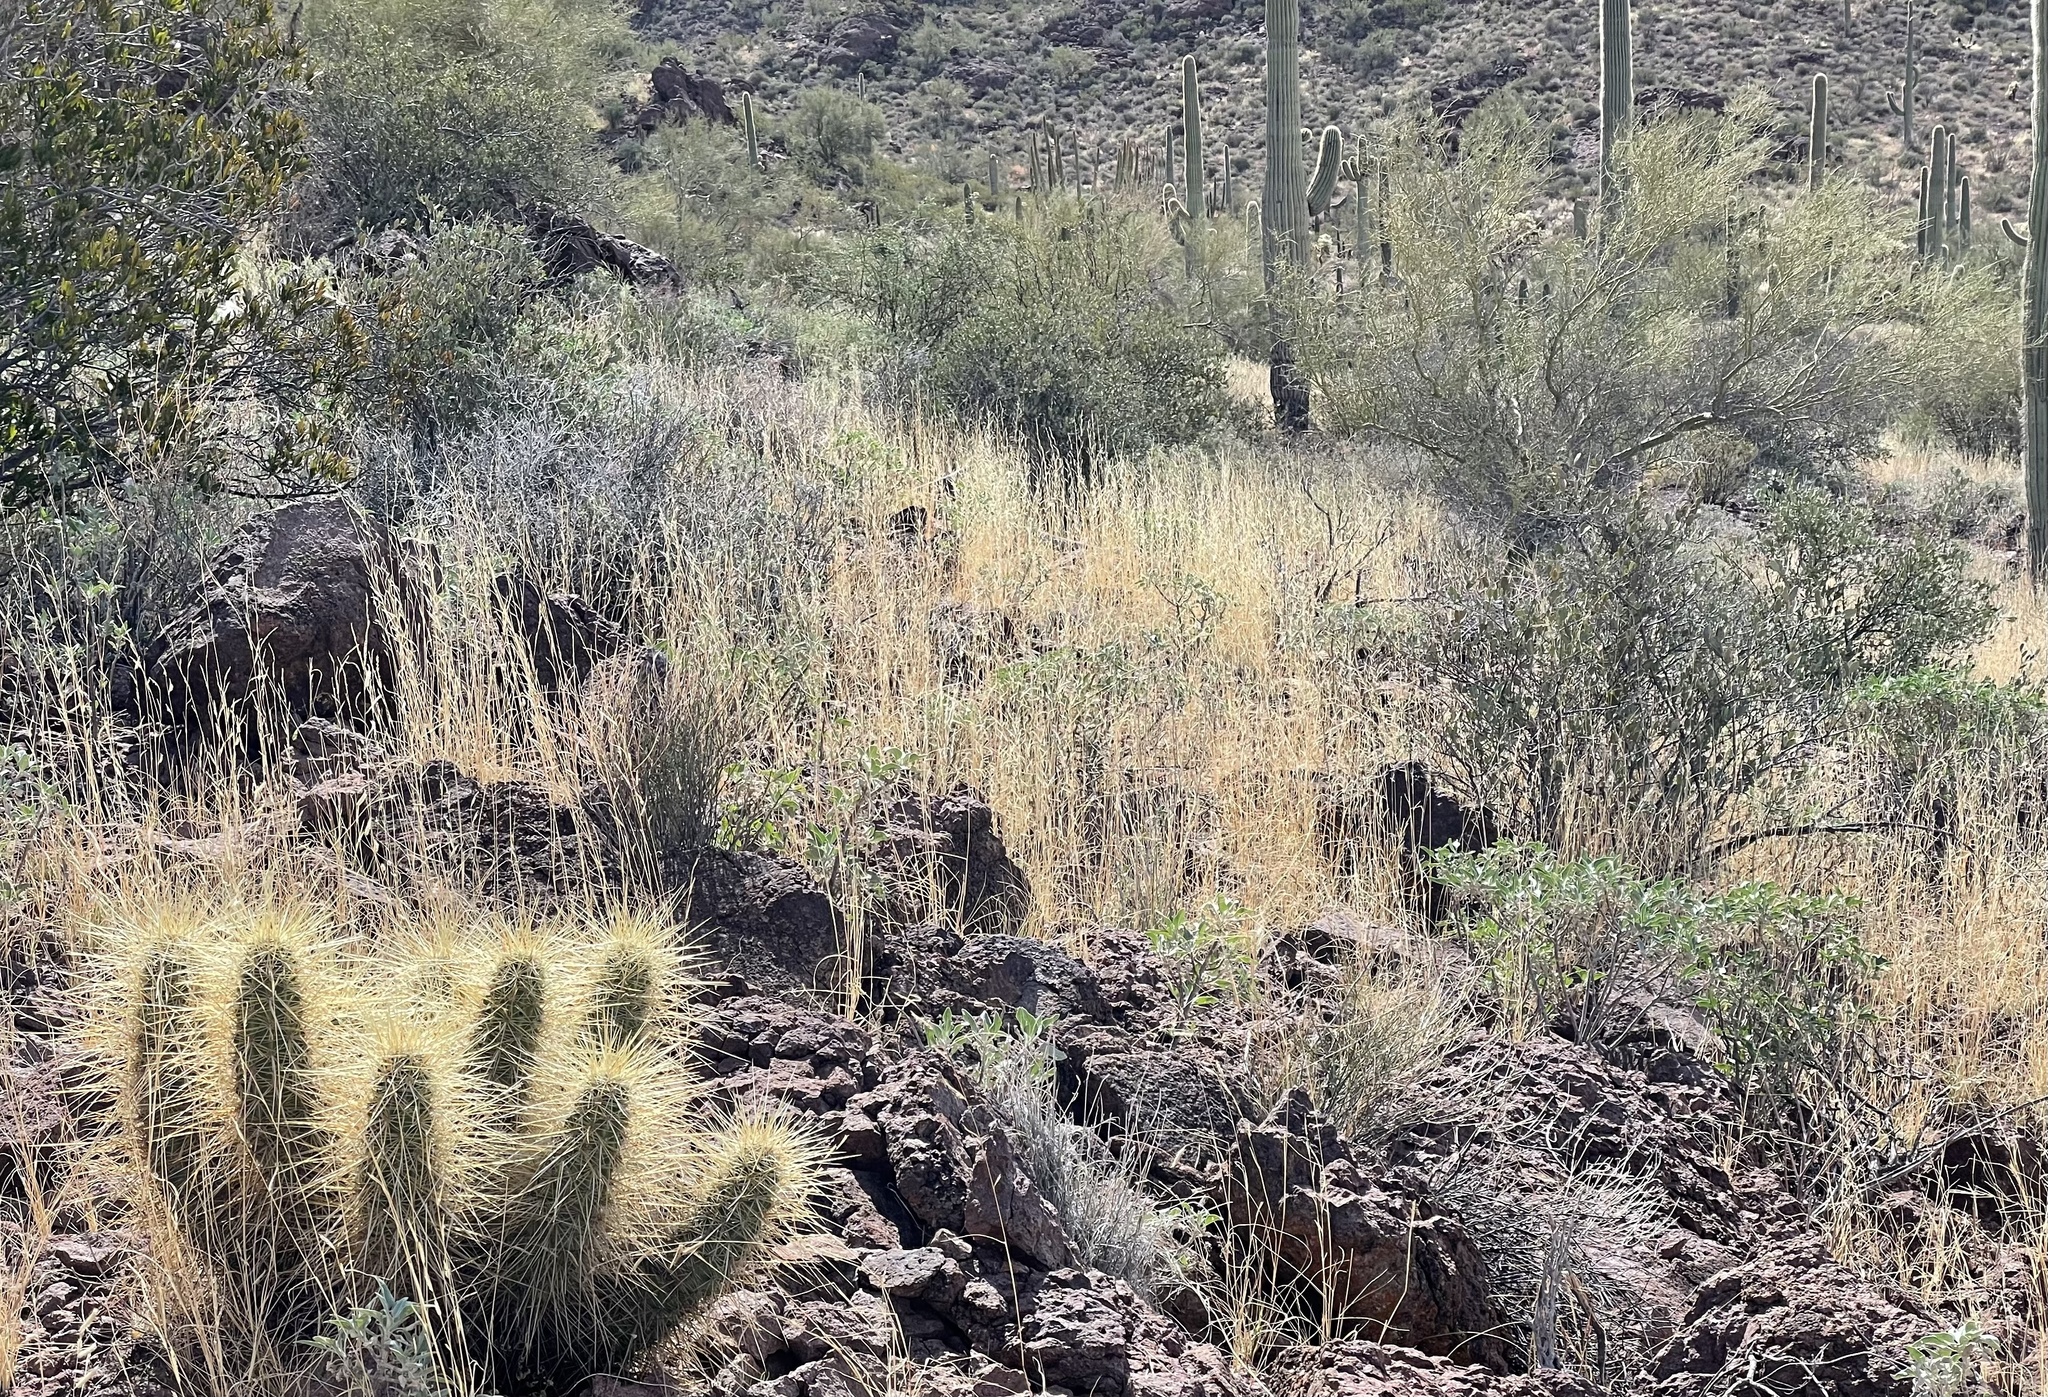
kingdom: Plantae
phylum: Tracheophyta
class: Magnoliopsida
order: Caryophyllales
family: Cactaceae
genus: Echinocereus
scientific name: Echinocereus nicholii
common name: Nichol's hedgehog cactus
